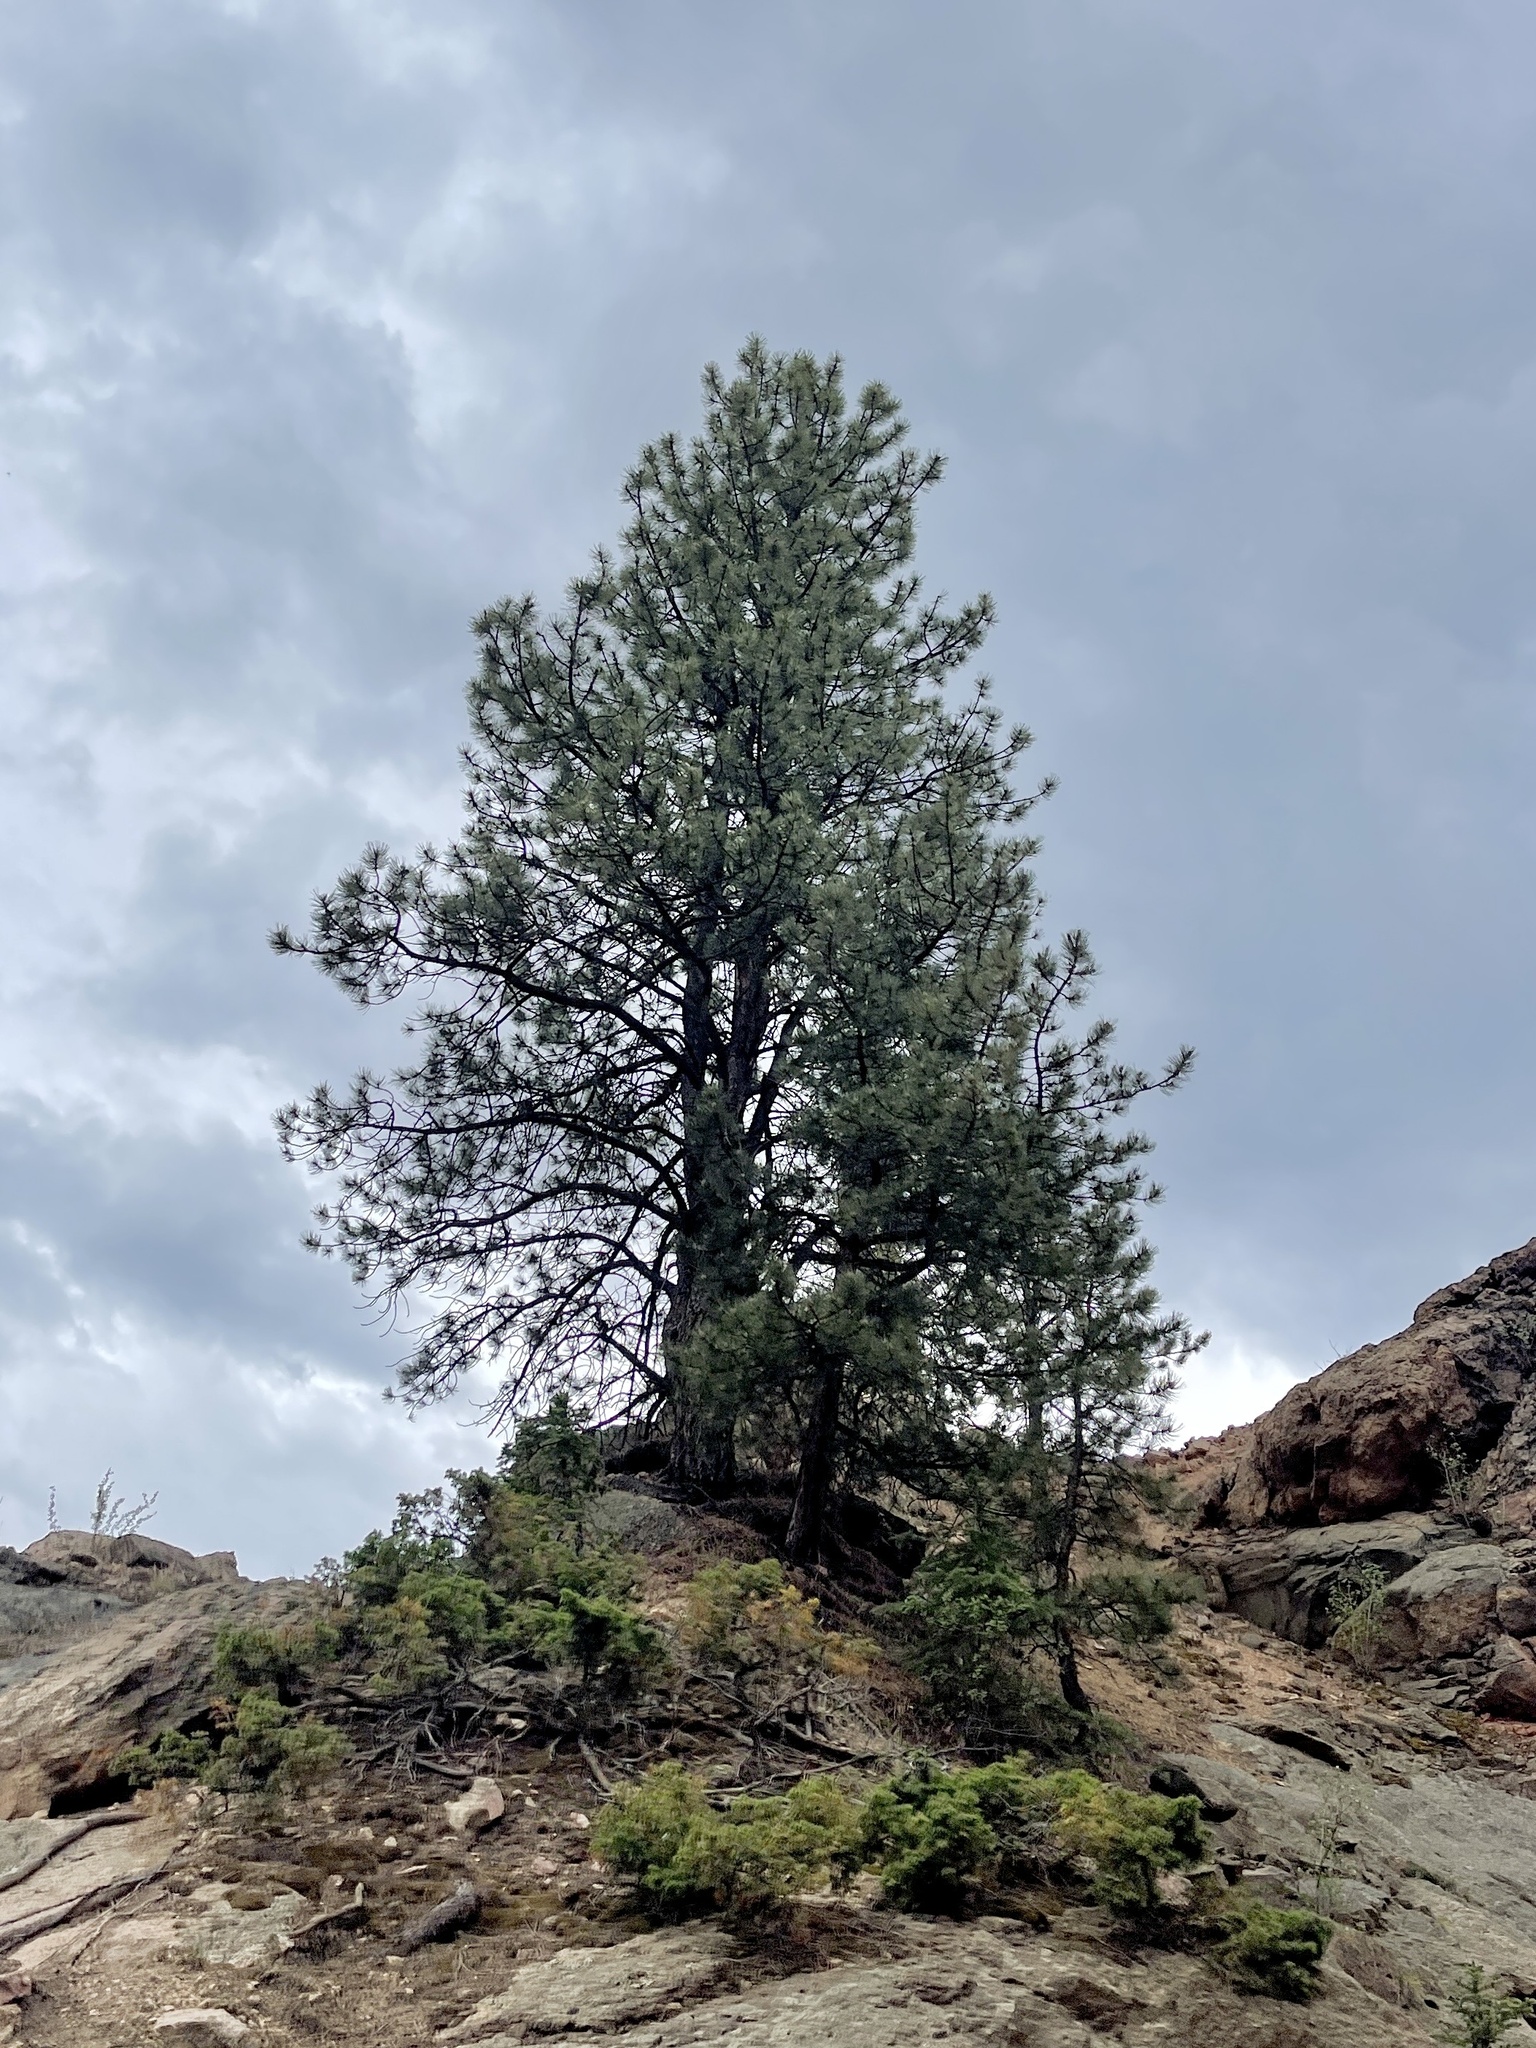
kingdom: Plantae
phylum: Tracheophyta
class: Pinopsida
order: Pinales
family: Pinaceae
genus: Pinus
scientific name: Pinus ponderosa
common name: Western yellow-pine
